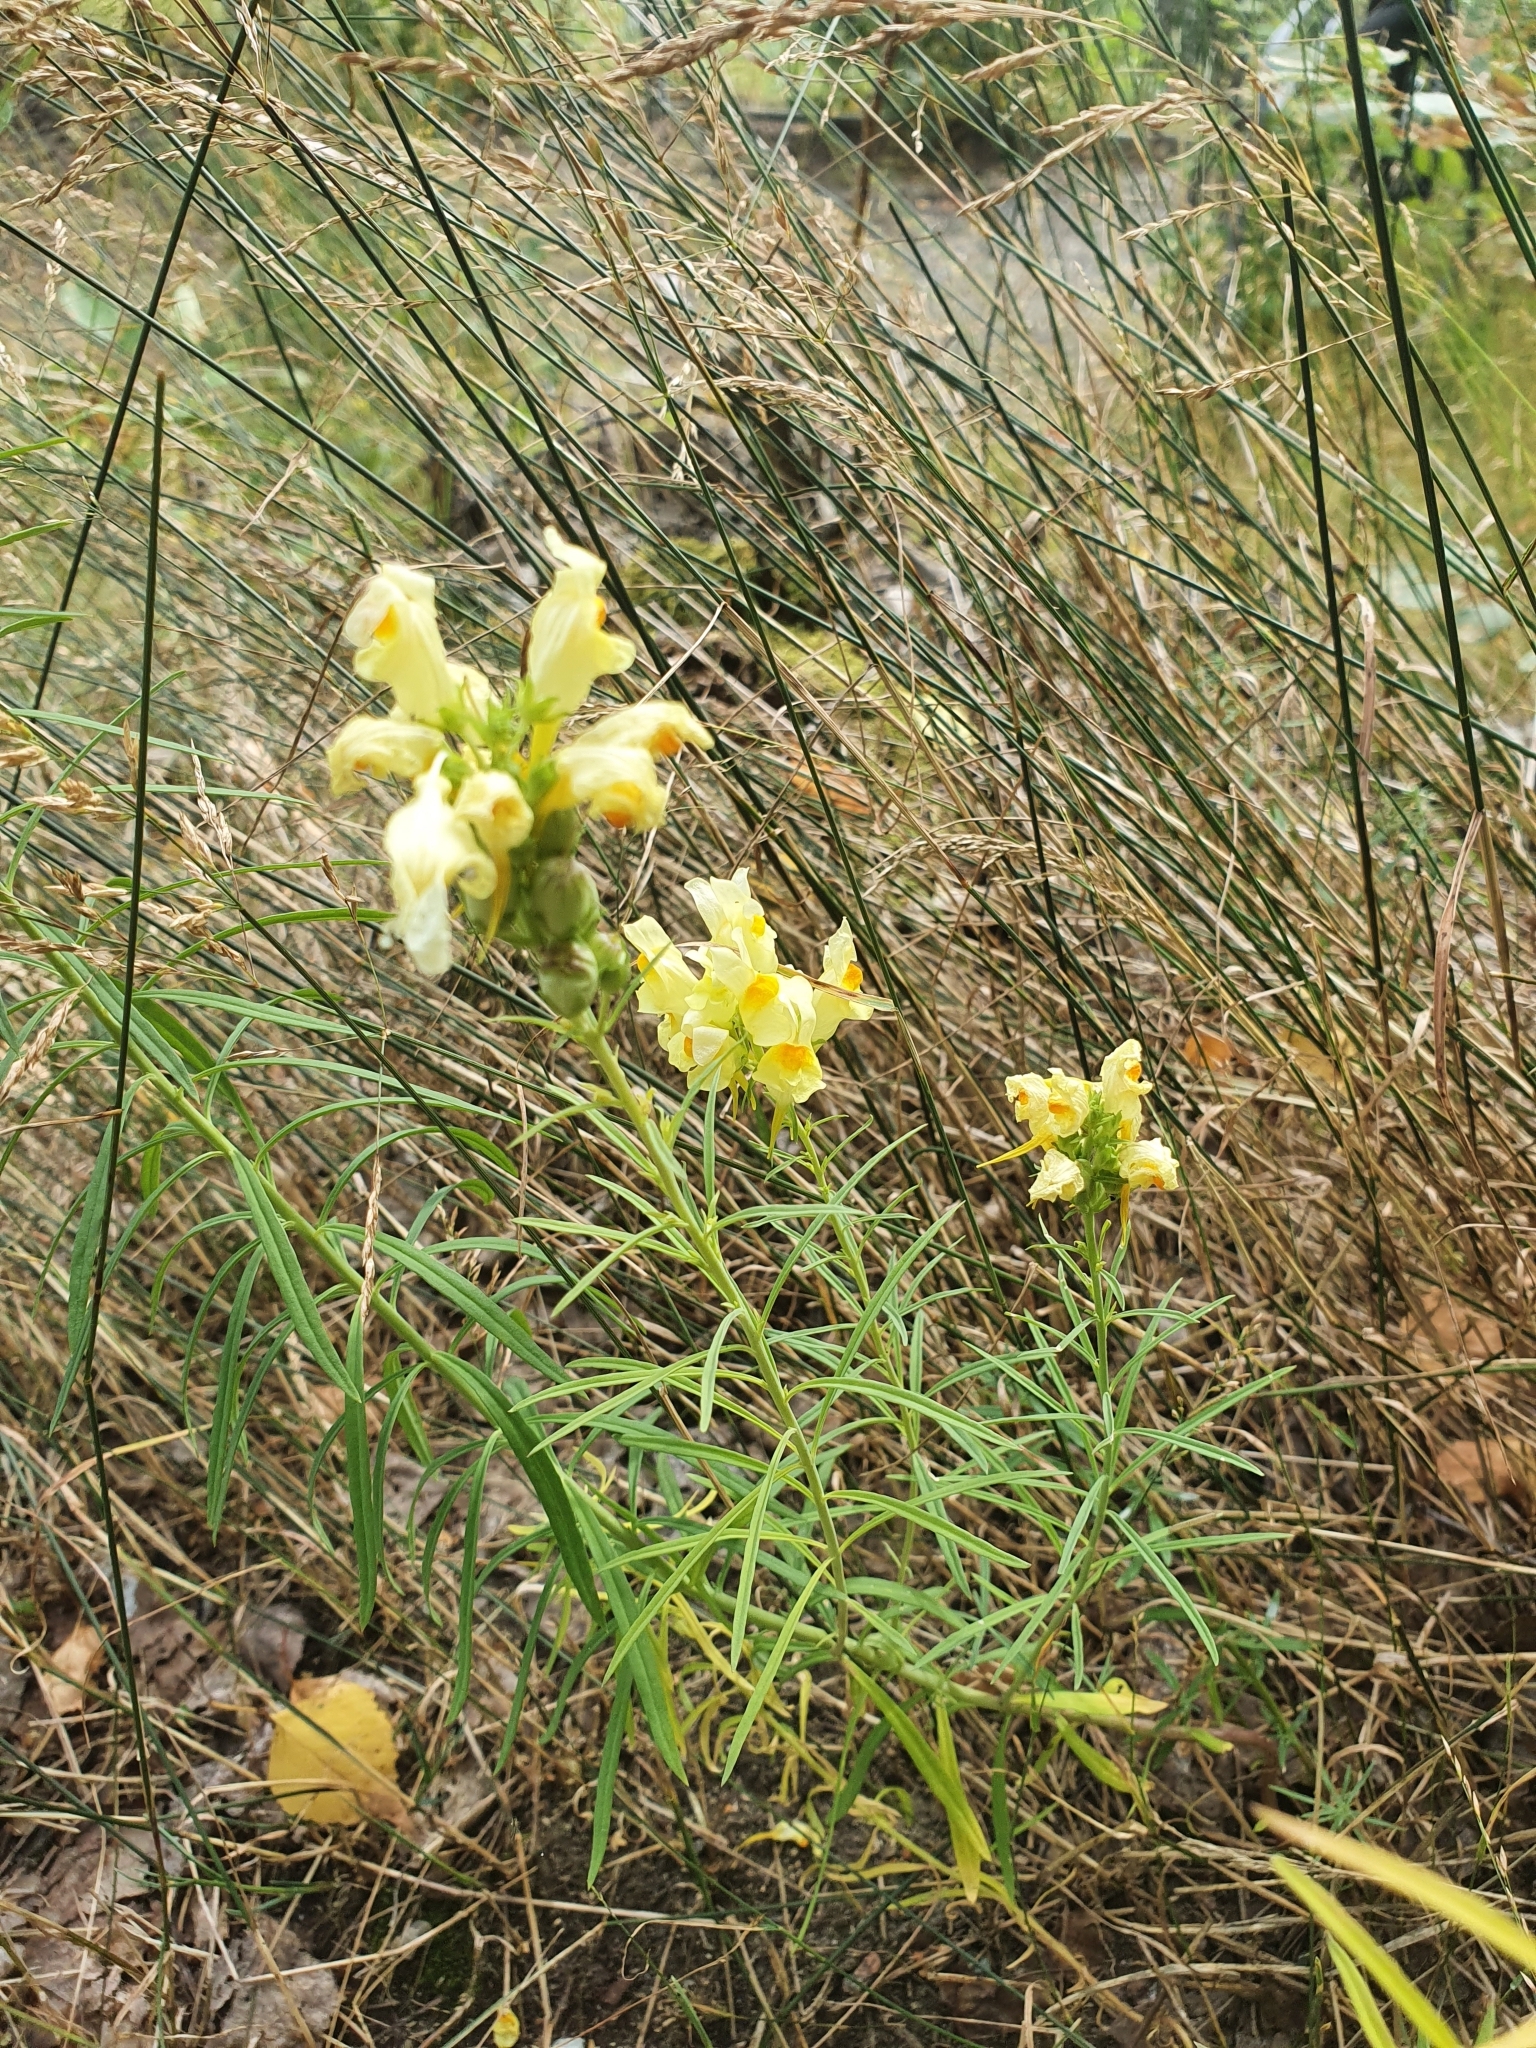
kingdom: Plantae
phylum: Tracheophyta
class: Magnoliopsida
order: Lamiales
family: Plantaginaceae
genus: Linaria
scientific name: Linaria vulgaris
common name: Butter and eggs
